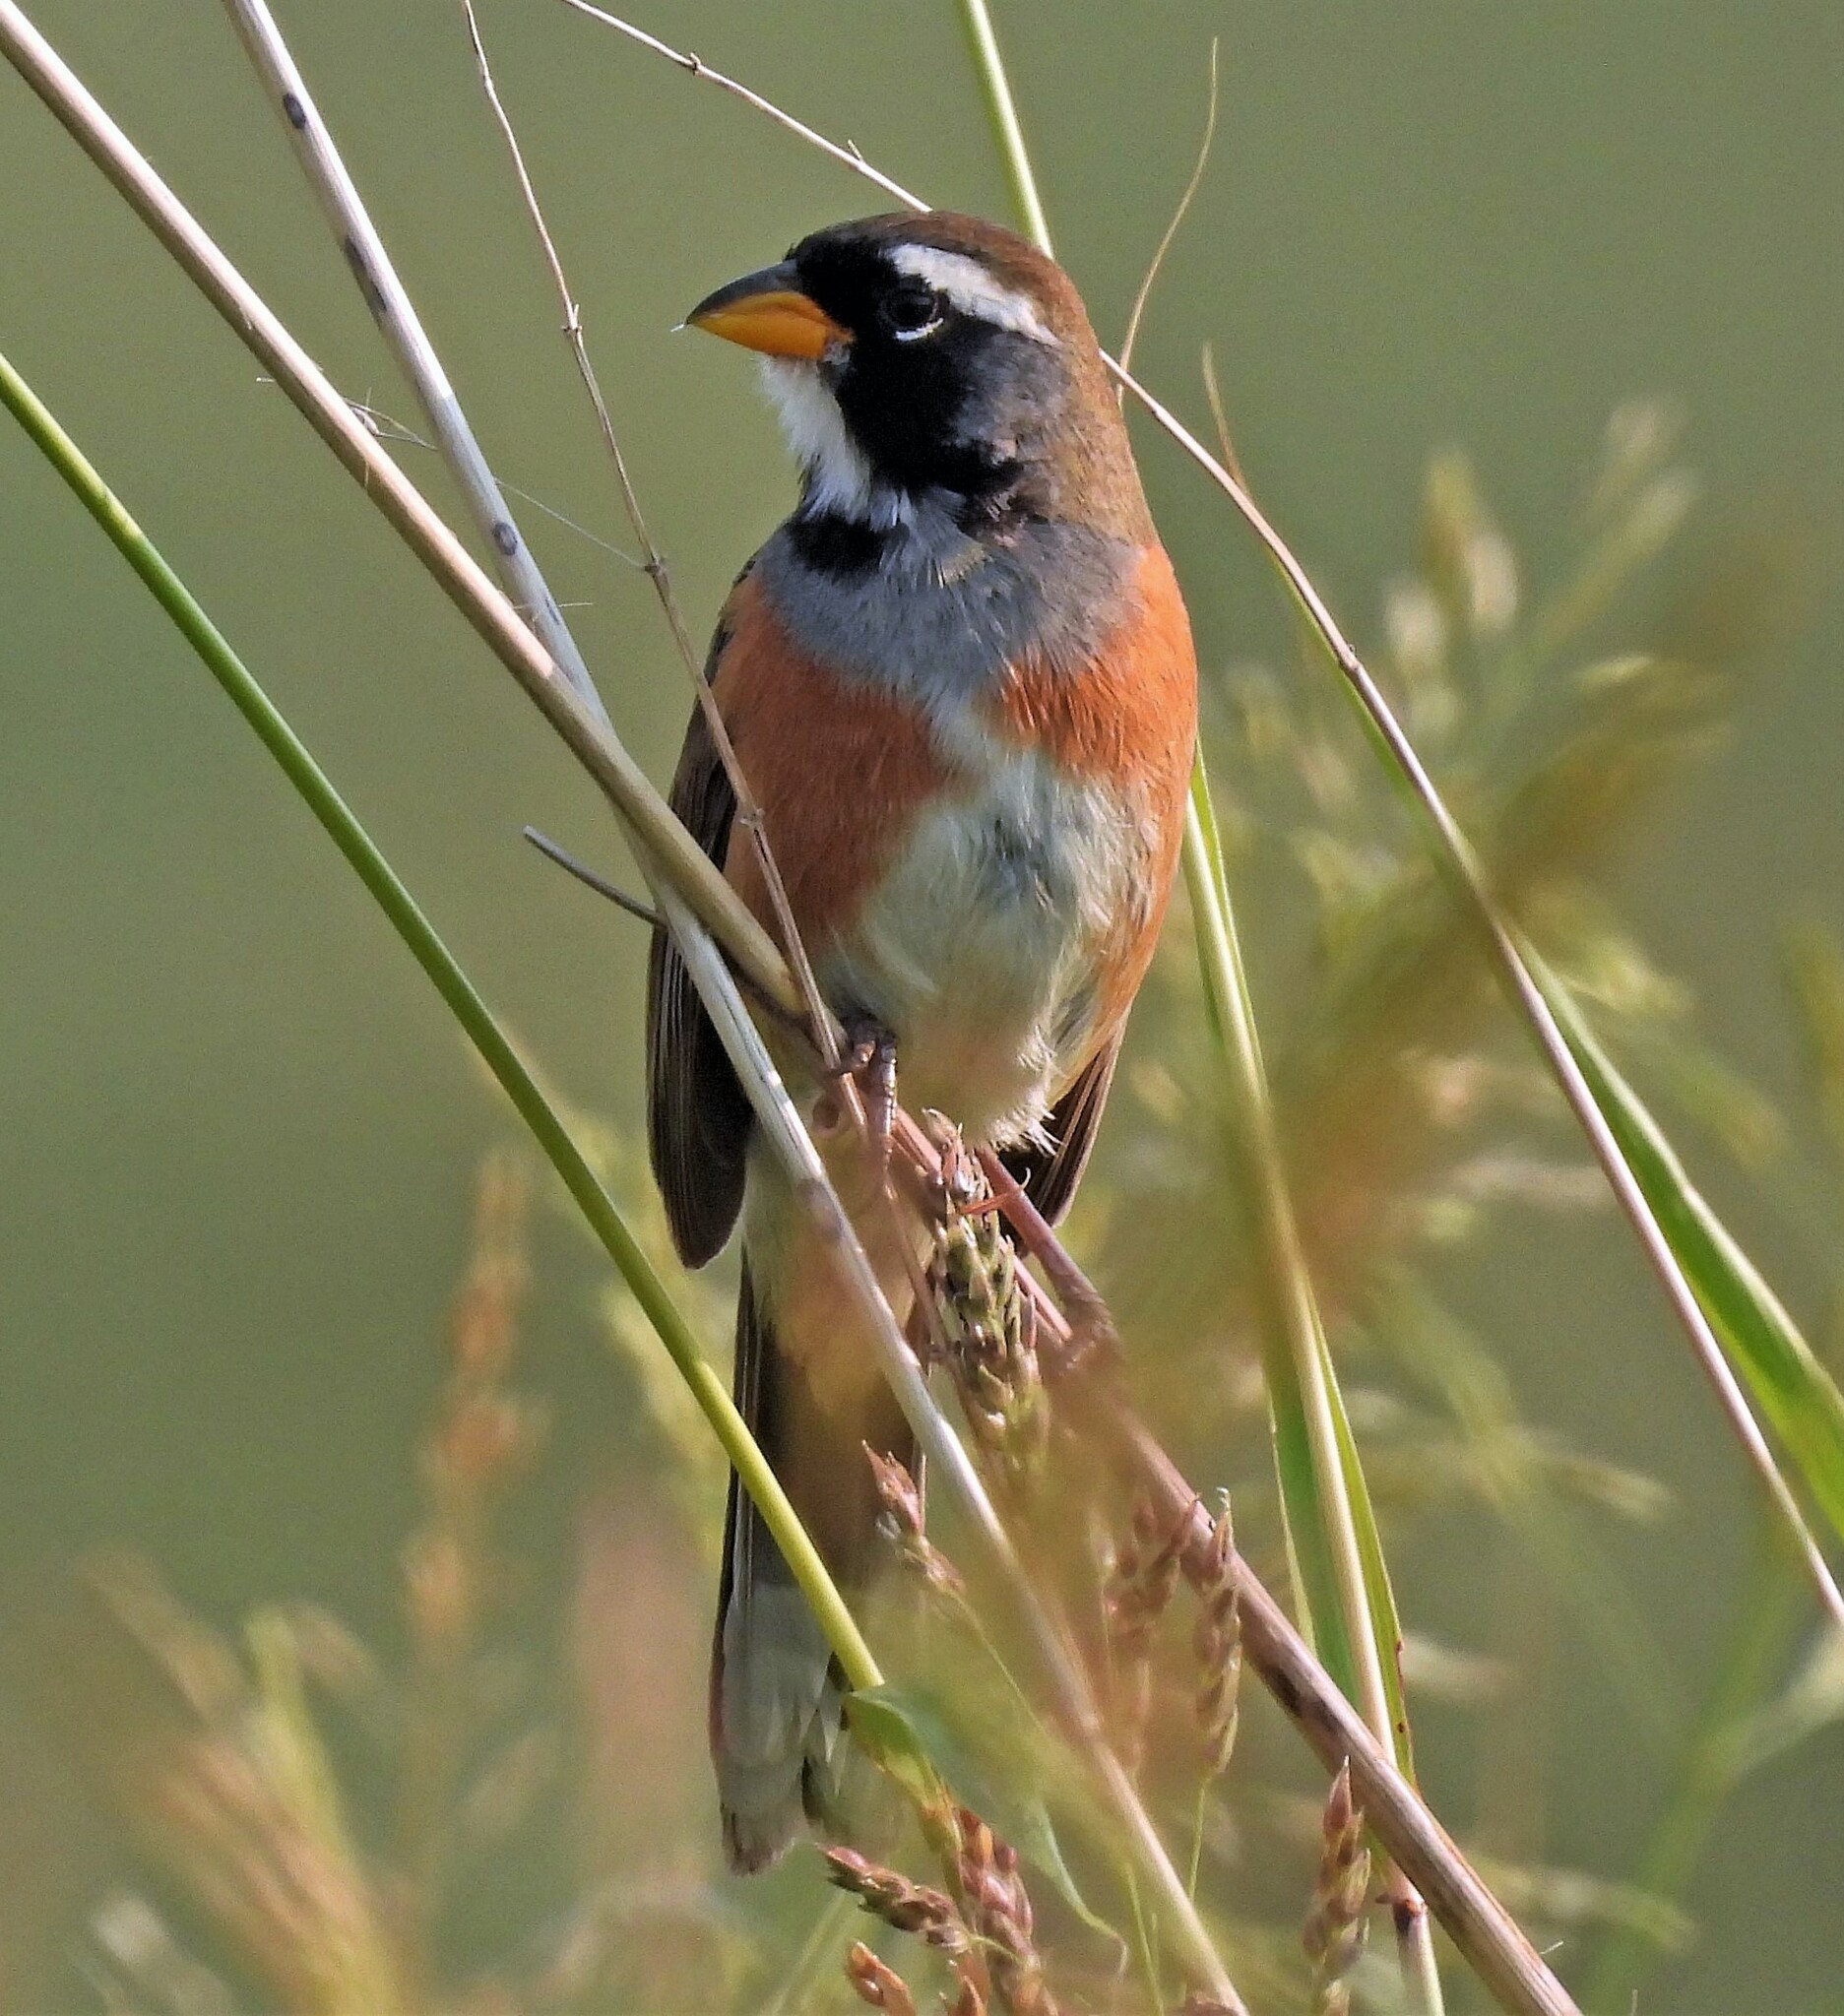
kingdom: Animalia
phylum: Chordata
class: Aves
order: Passeriformes
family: Thraupidae
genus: Saltatricula
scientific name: Saltatricula multicolor
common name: Many-colored chaco finch
